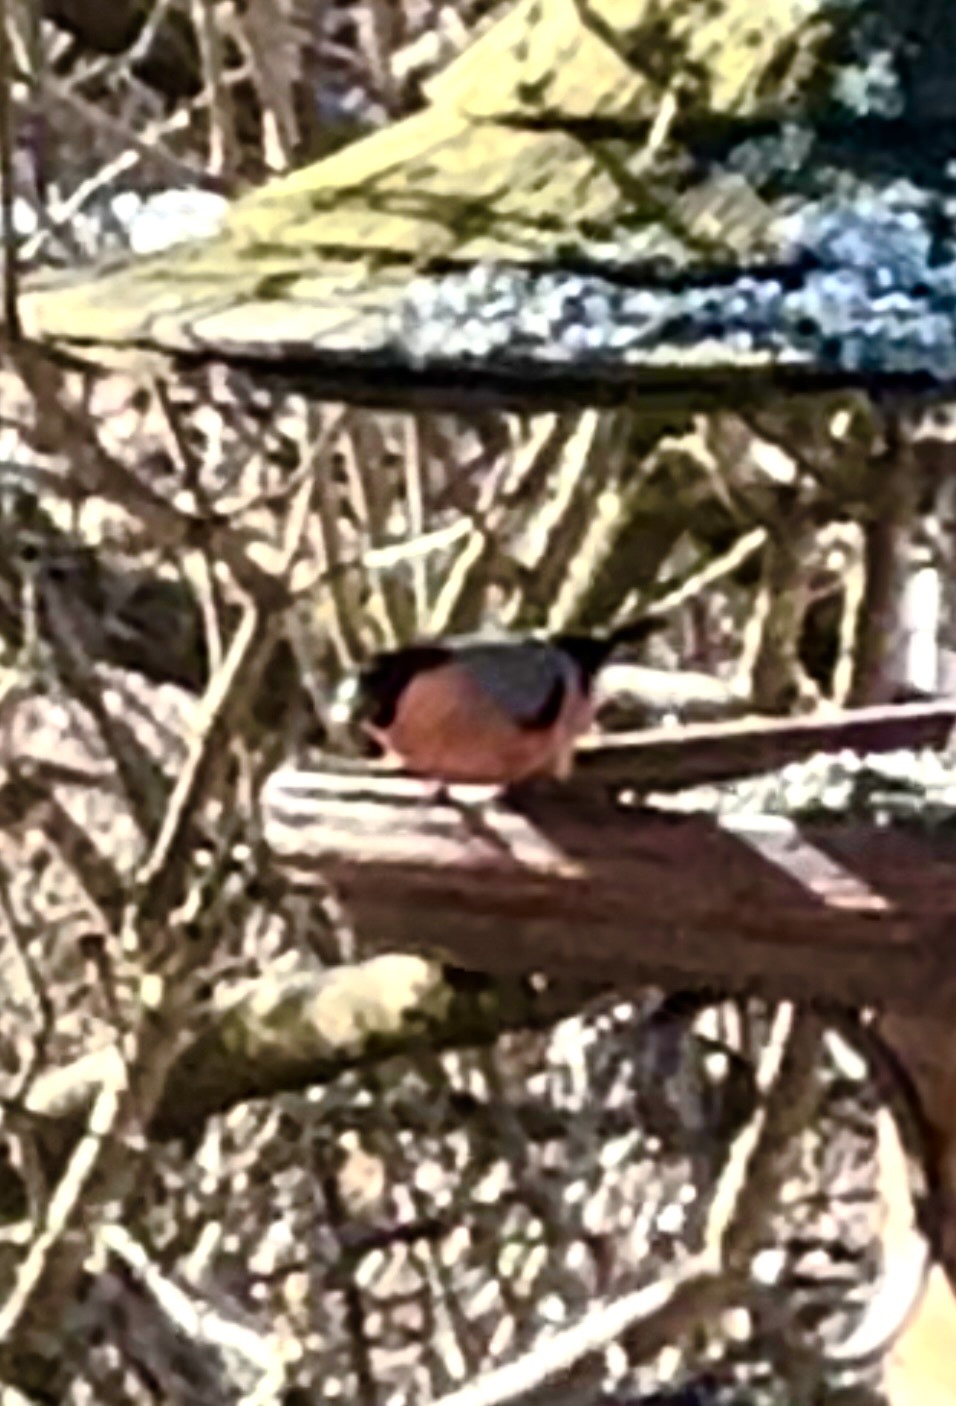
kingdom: Animalia
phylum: Chordata
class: Aves
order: Passeriformes
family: Fringillidae
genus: Pyrrhula
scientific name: Pyrrhula pyrrhula
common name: Eurasian bullfinch
